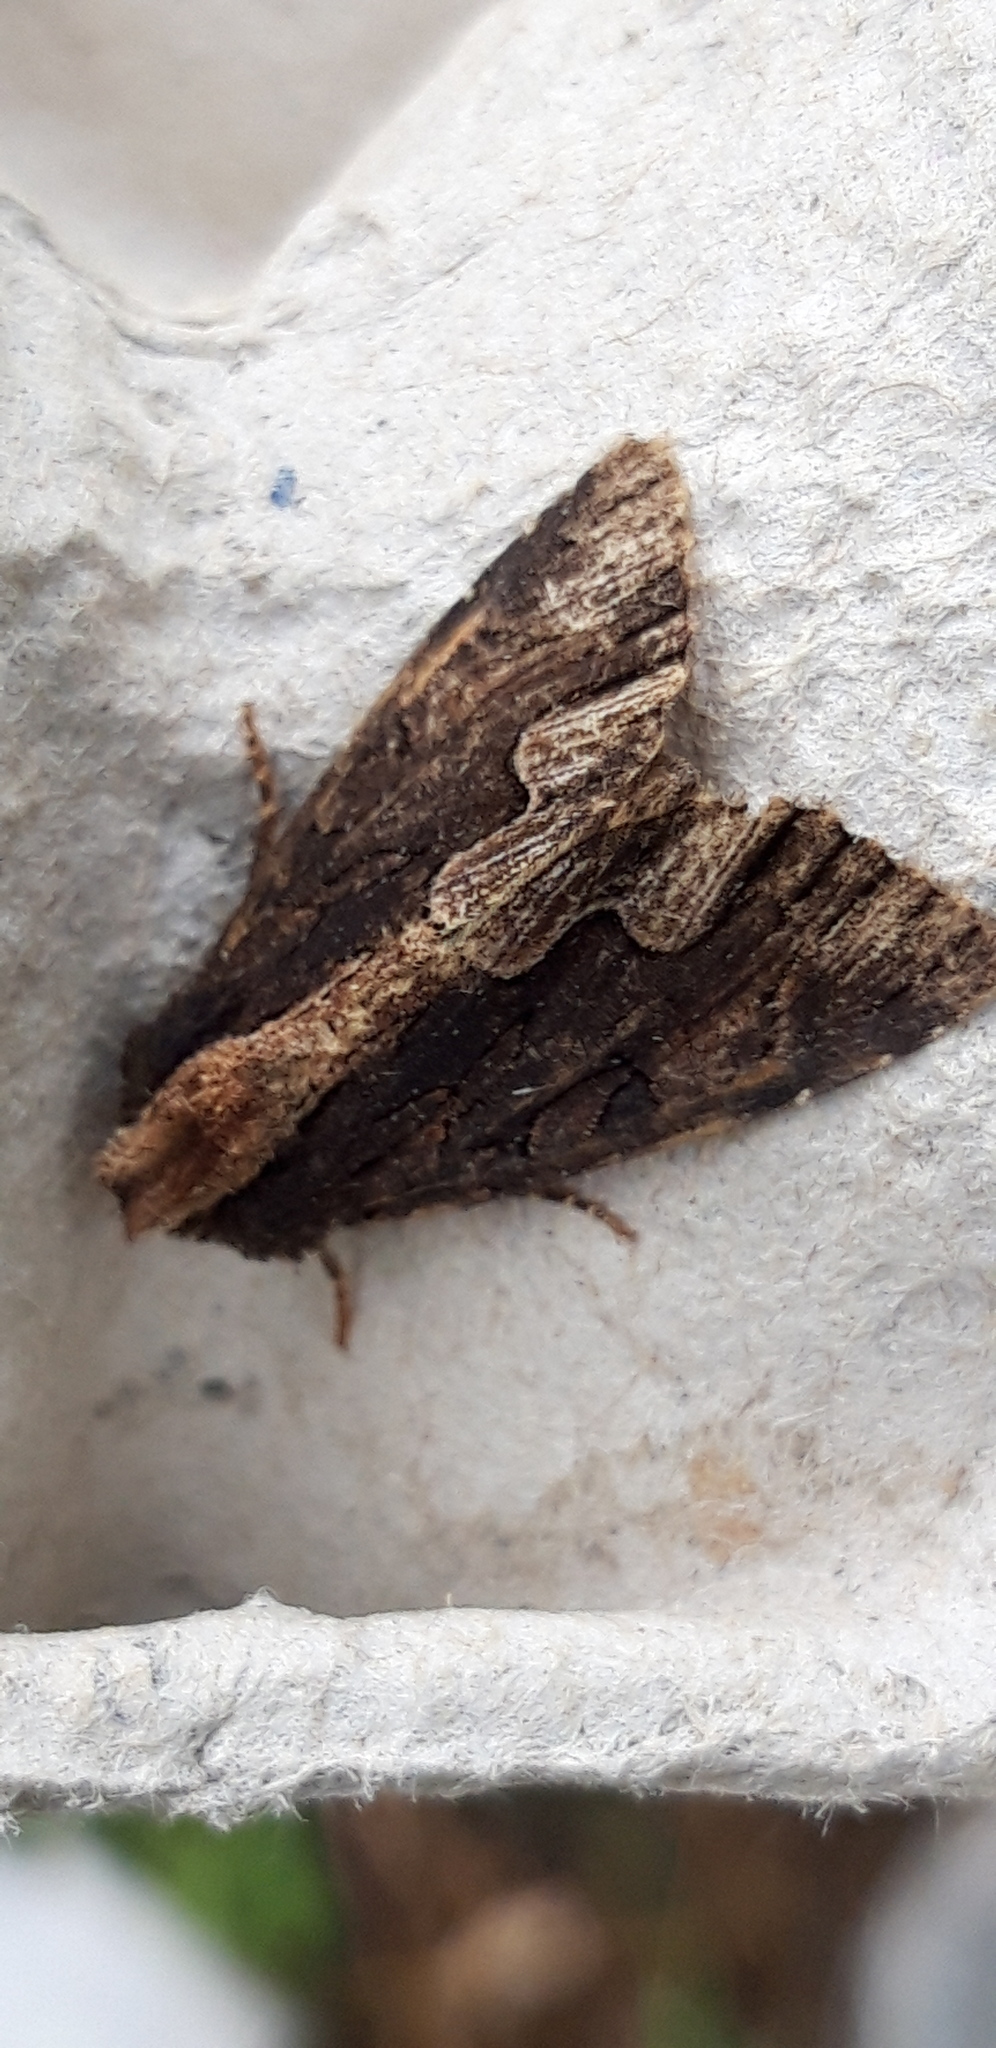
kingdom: Animalia
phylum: Arthropoda
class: Insecta
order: Lepidoptera
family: Noctuidae
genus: Dypterygia
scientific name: Dypterygia scabriuscula
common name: Bird's wing
